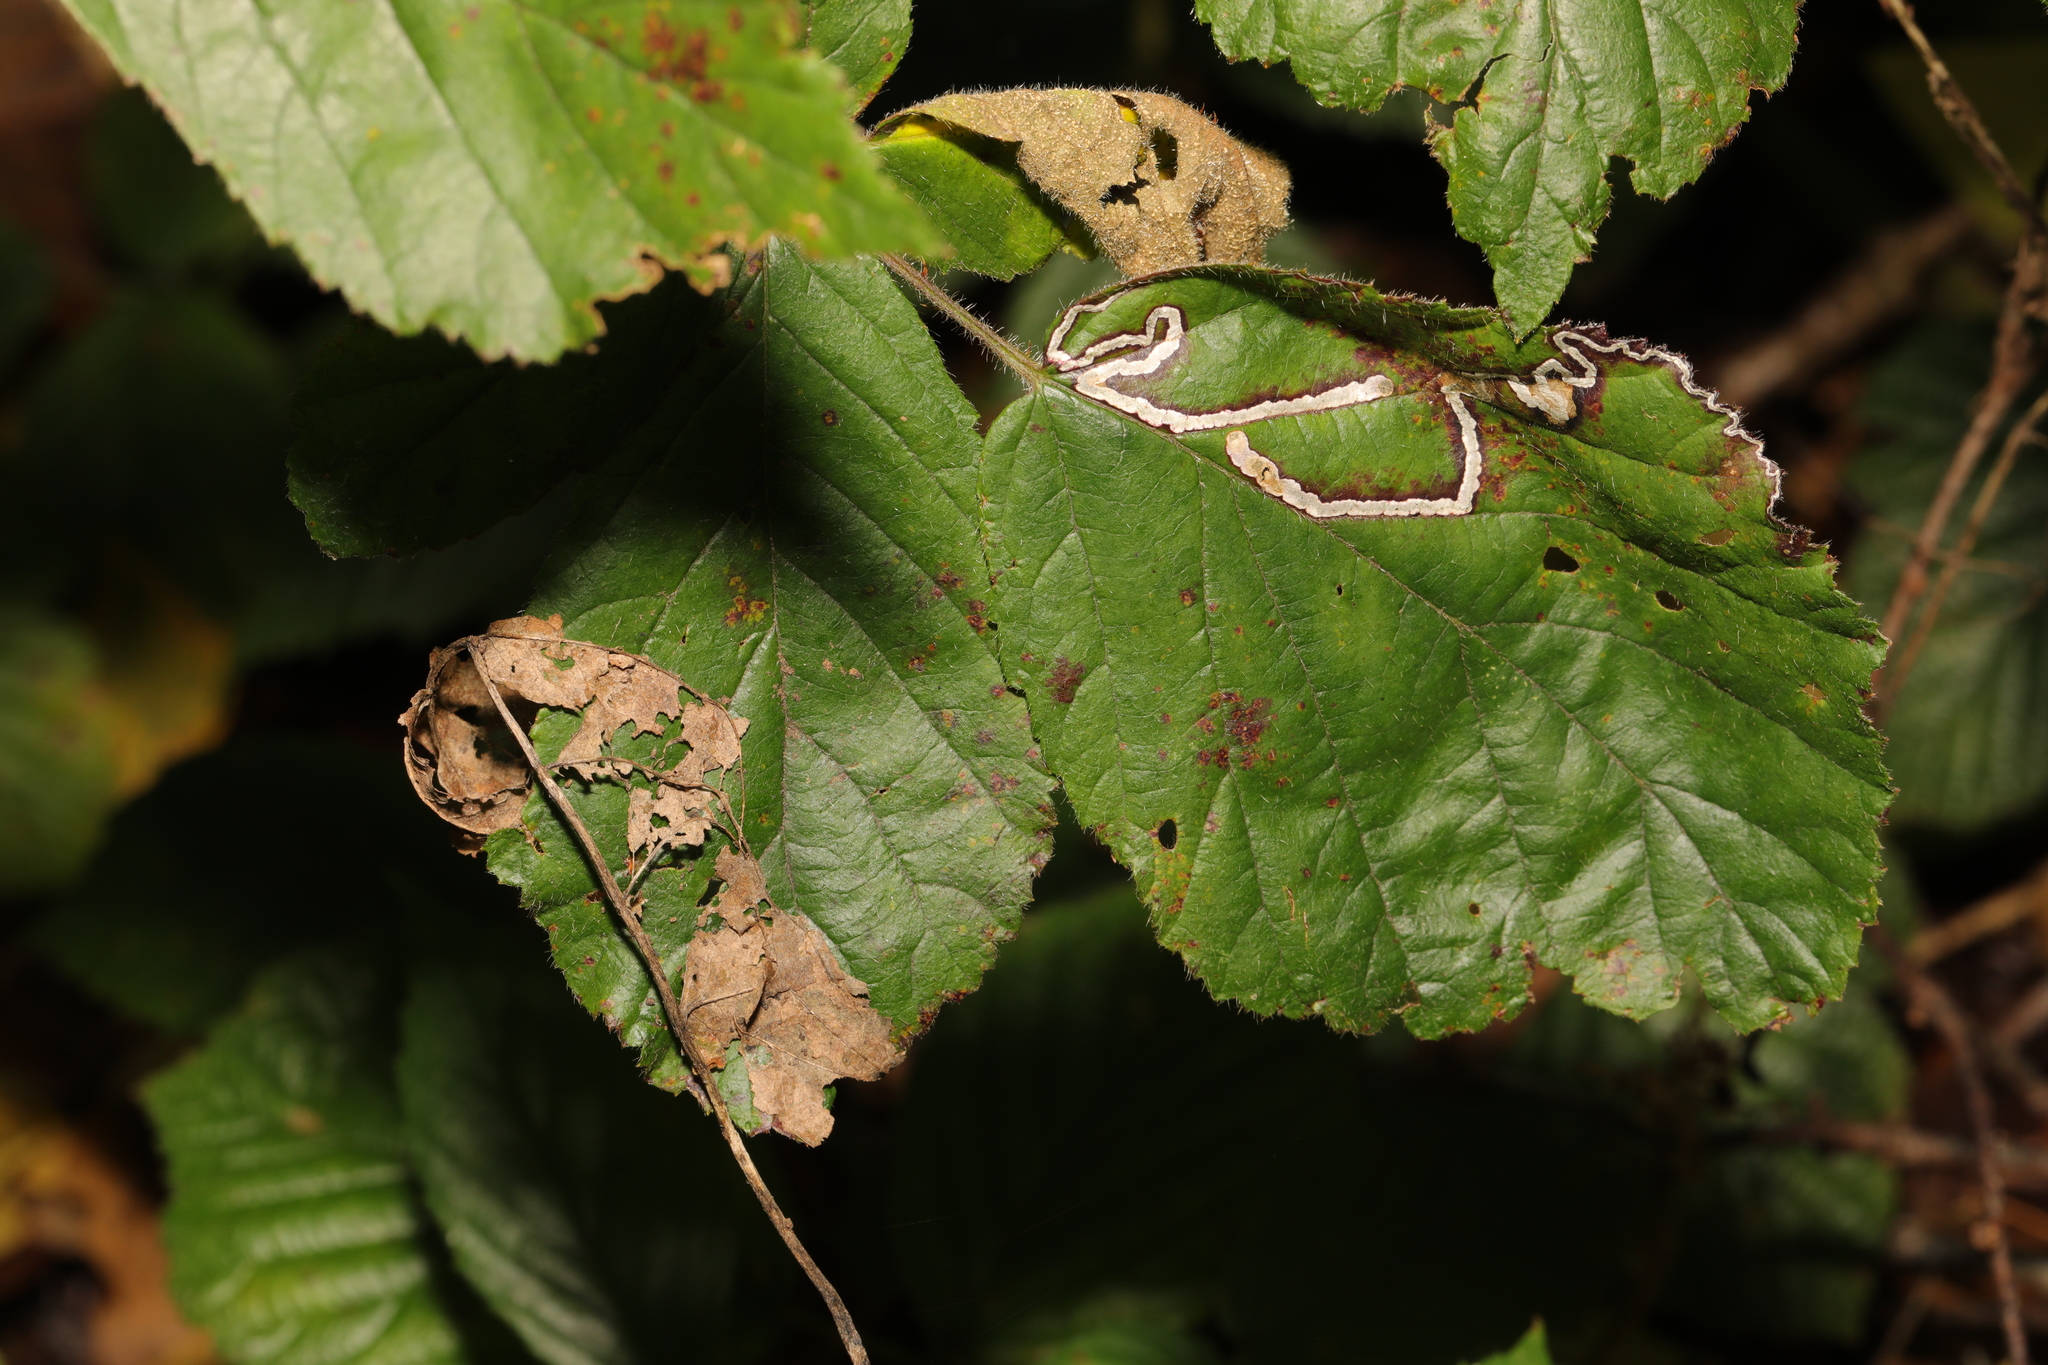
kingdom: Animalia
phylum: Arthropoda
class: Insecta
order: Lepidoptera
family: Nepticulidae
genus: Stigmella
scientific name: Stigmella aurella
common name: Golden pigmy
